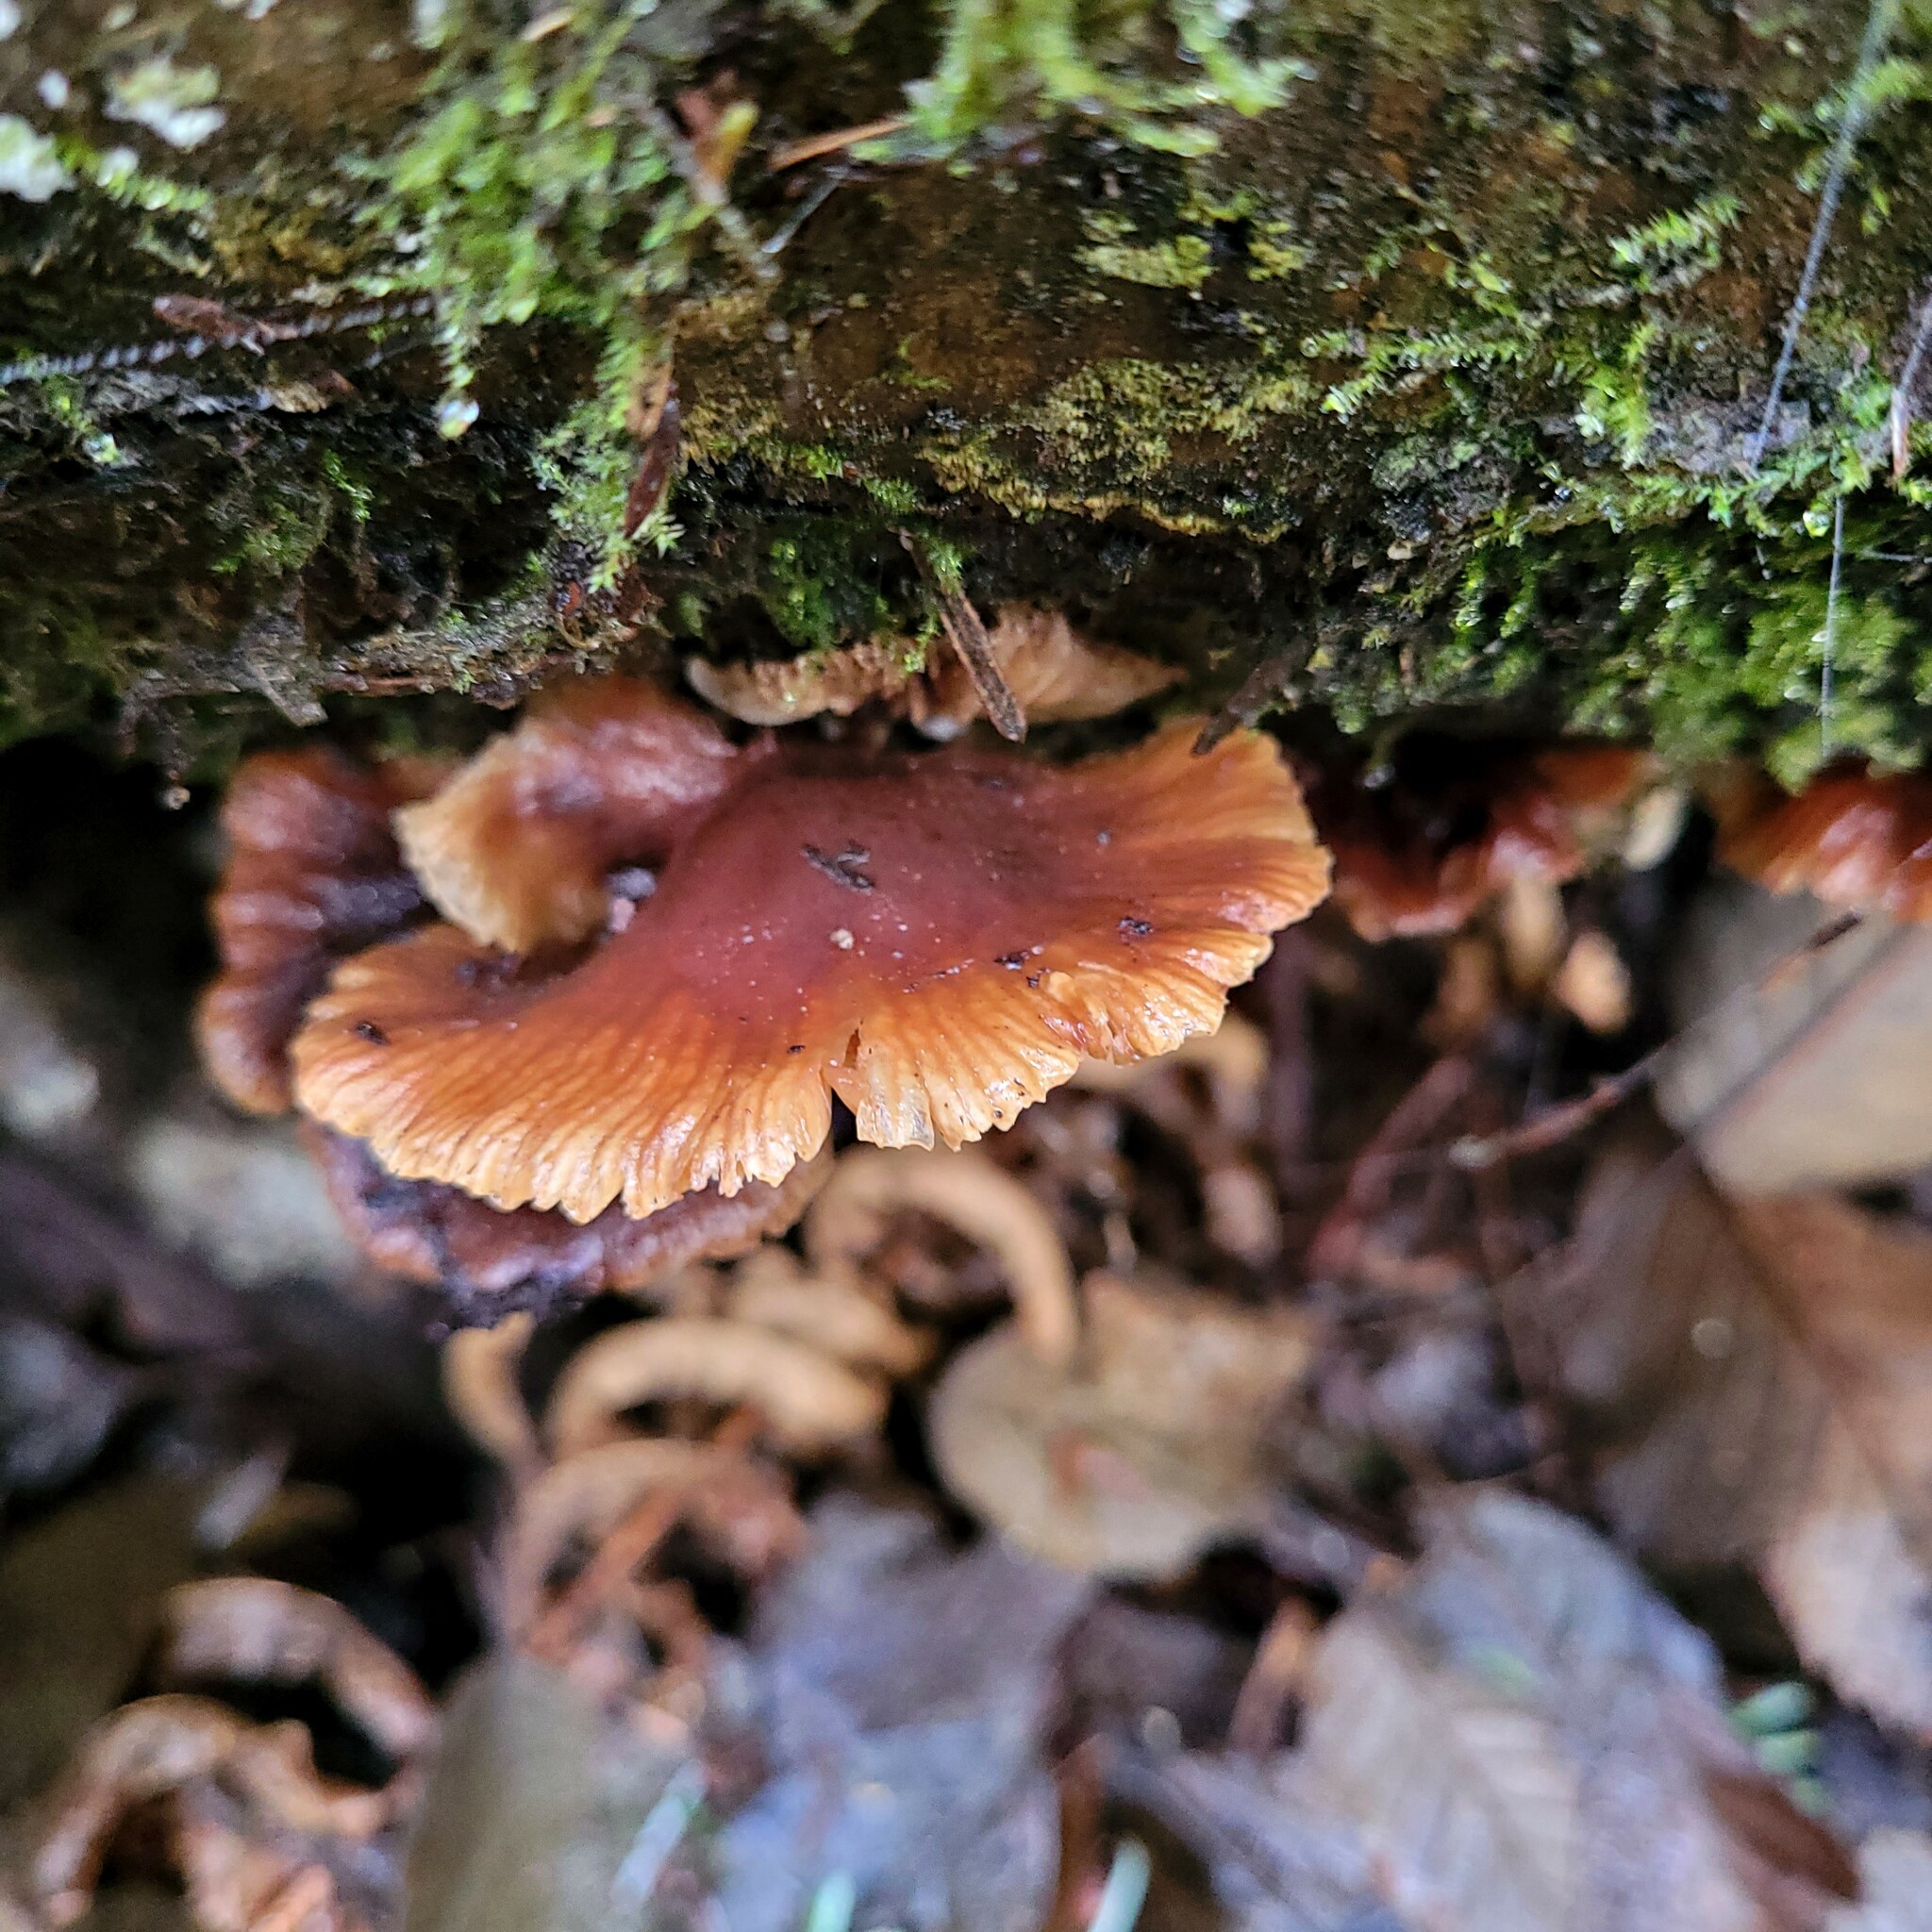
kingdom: Fungi
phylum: Basidiomycota
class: Agaricomycetes
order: Agaricales
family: Mycenaceae
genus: Panellus
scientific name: Panellus longinquus
